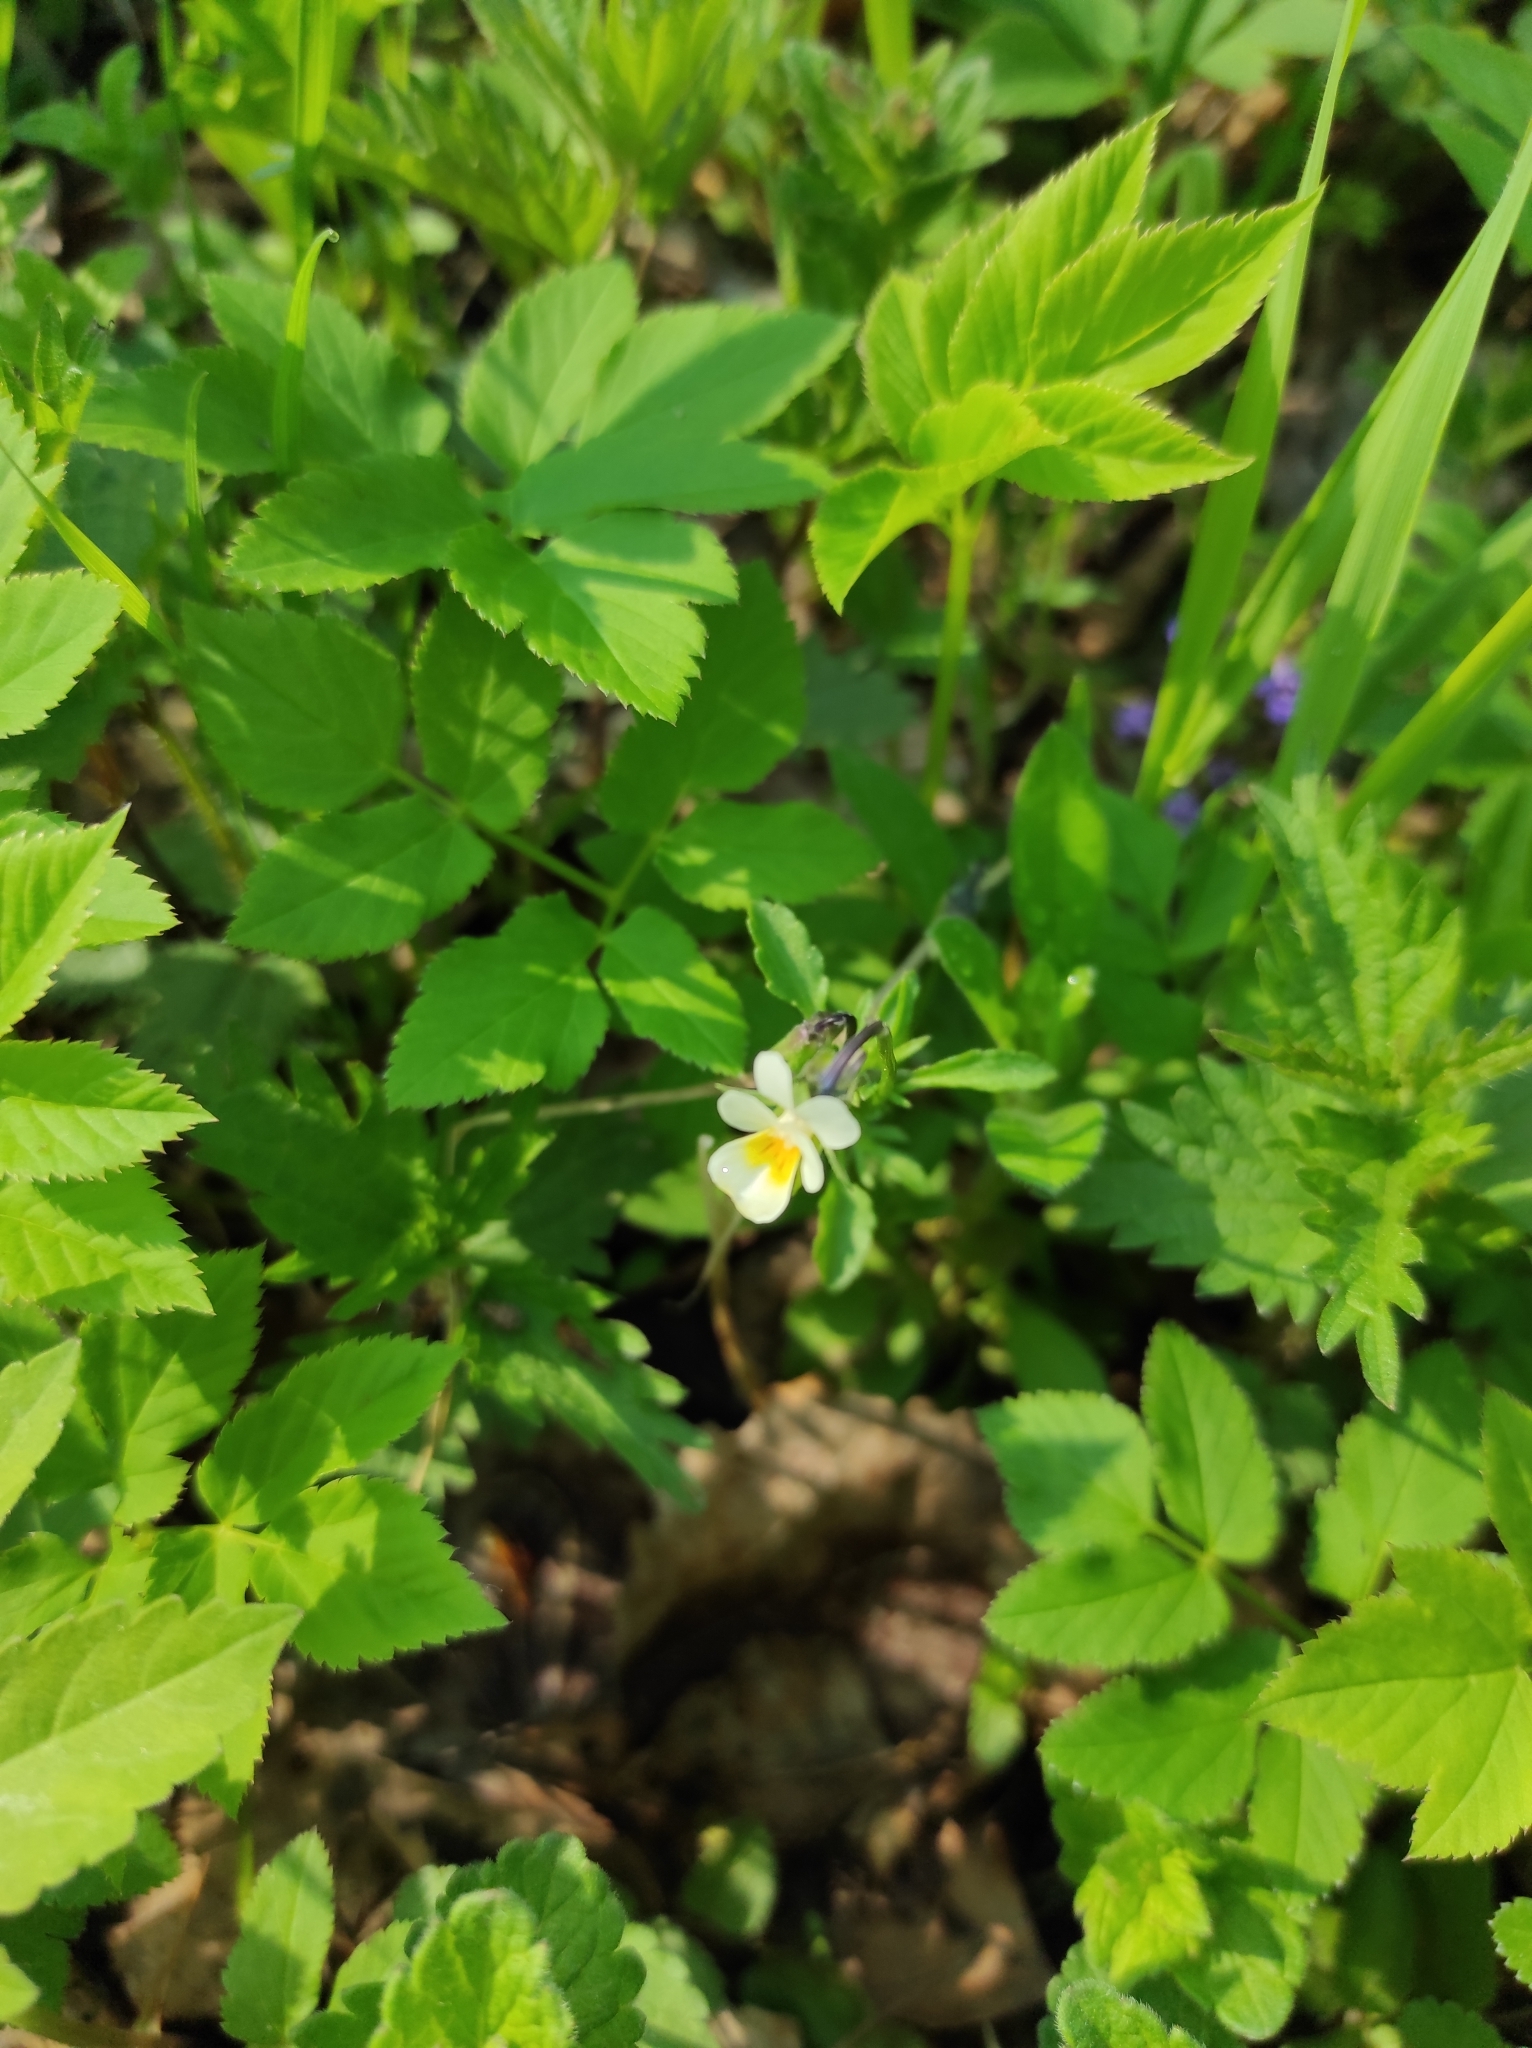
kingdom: Plantae
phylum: Tracheophyta
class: Magnoliopsida
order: Malpighiales
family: Violaceae
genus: Viola
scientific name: Viola arvensis
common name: Field pansy
